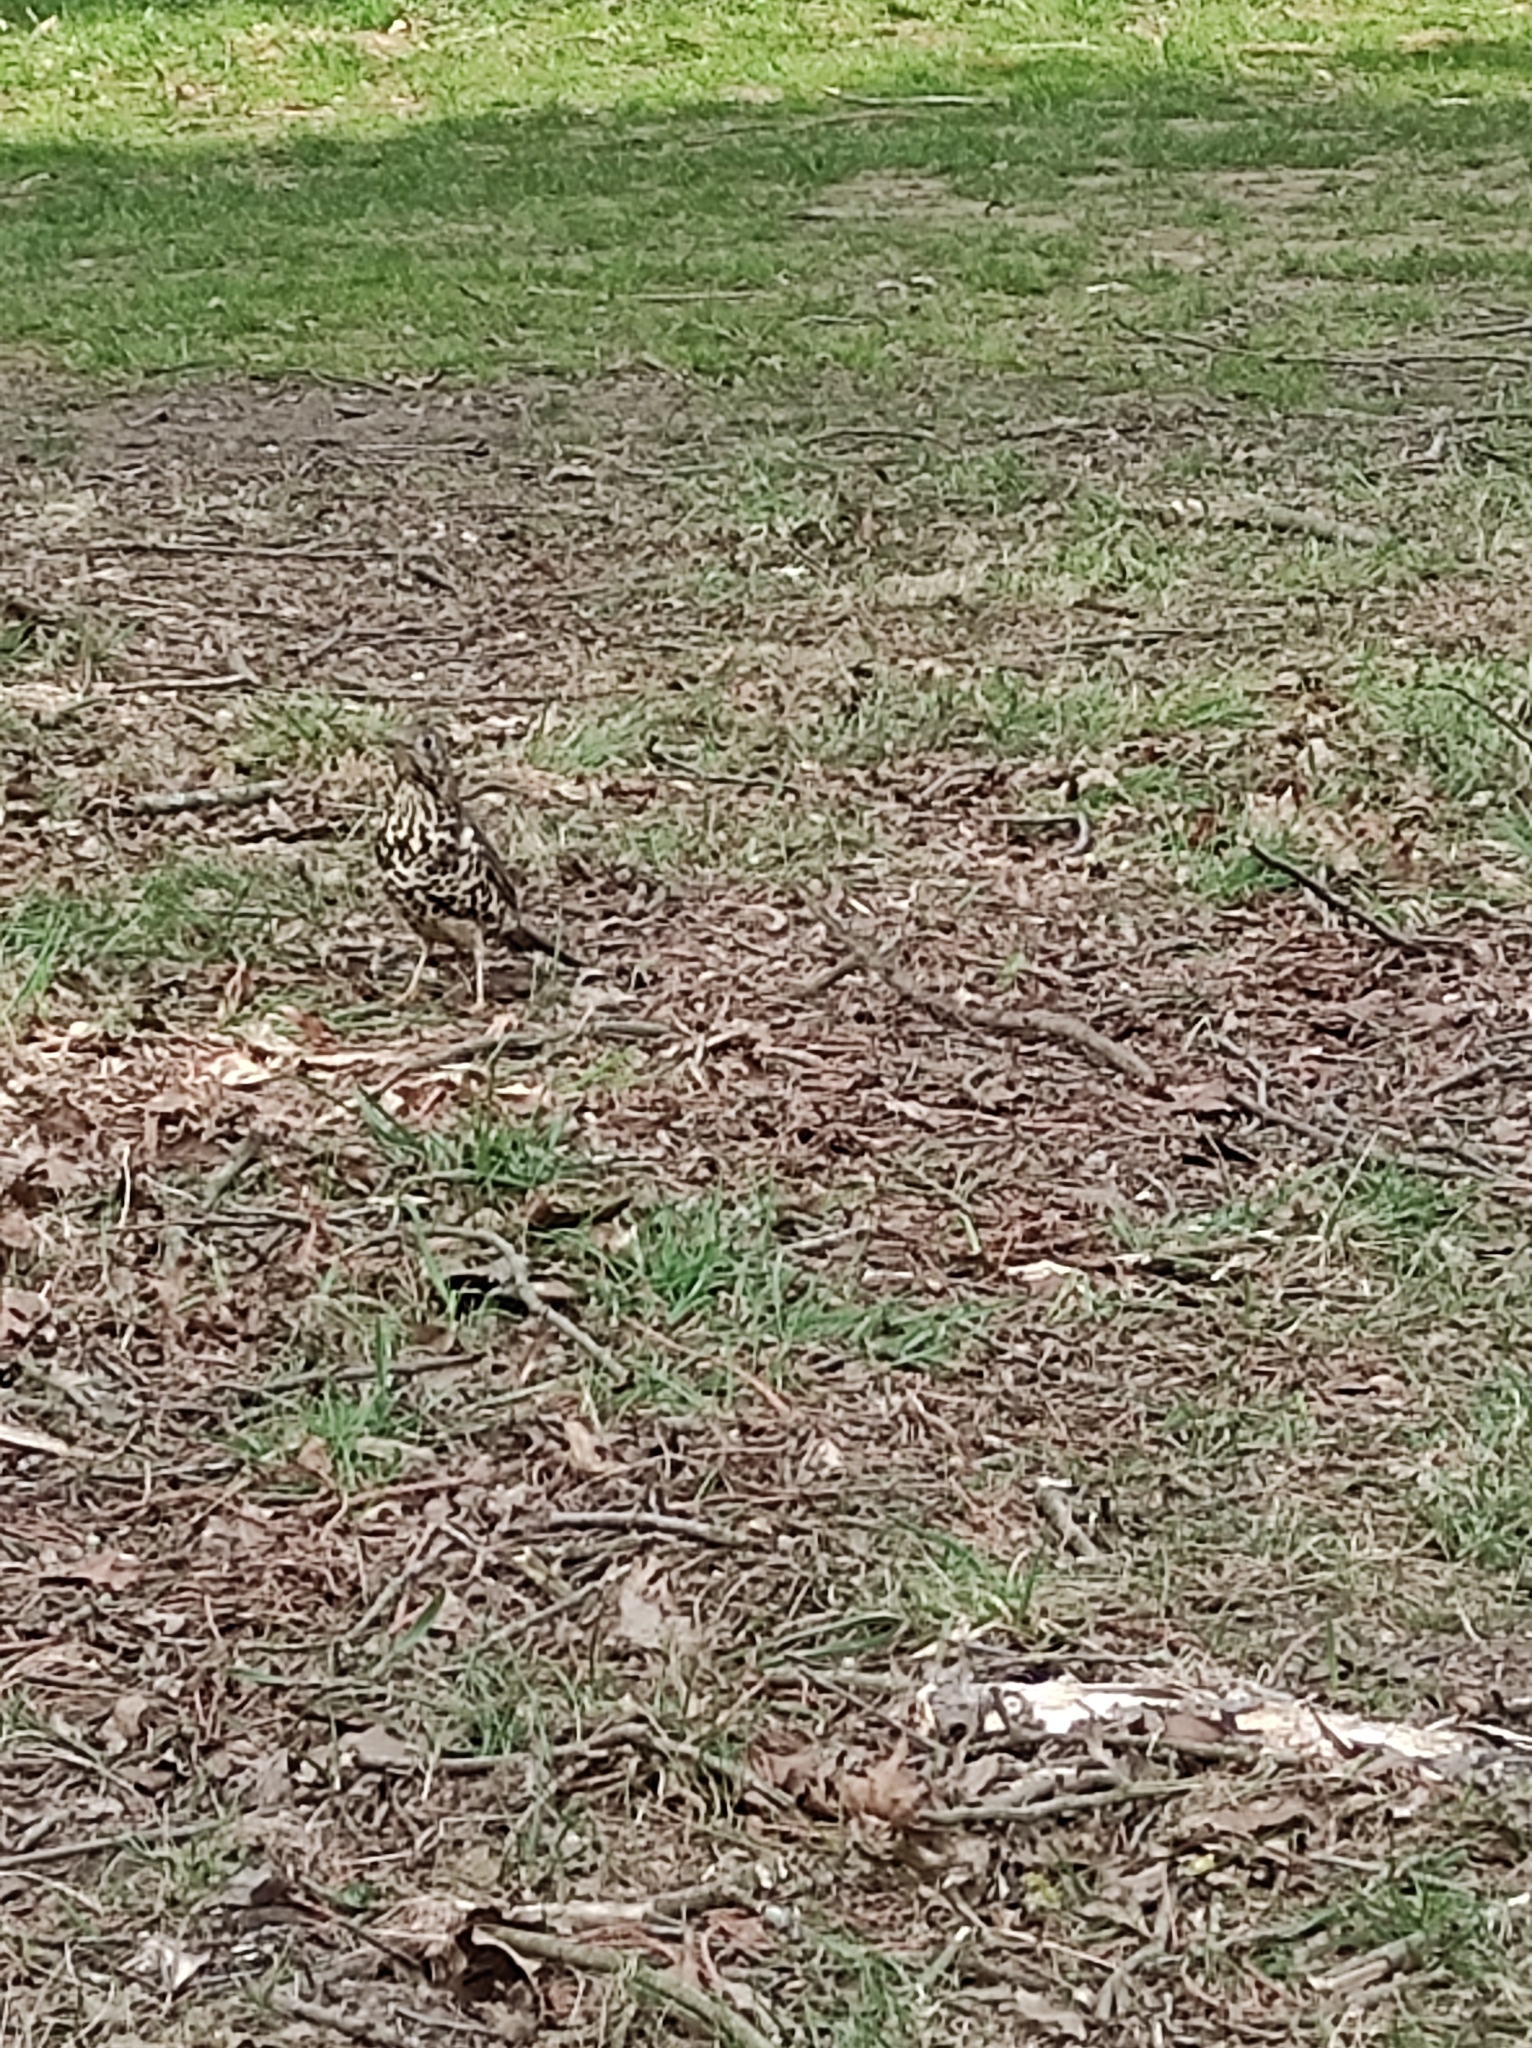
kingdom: Animalia
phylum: Chordata
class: Aves
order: Passeriformes
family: Turdidae
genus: Turdus
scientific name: Turdus viscivorus
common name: Mistle thrush
